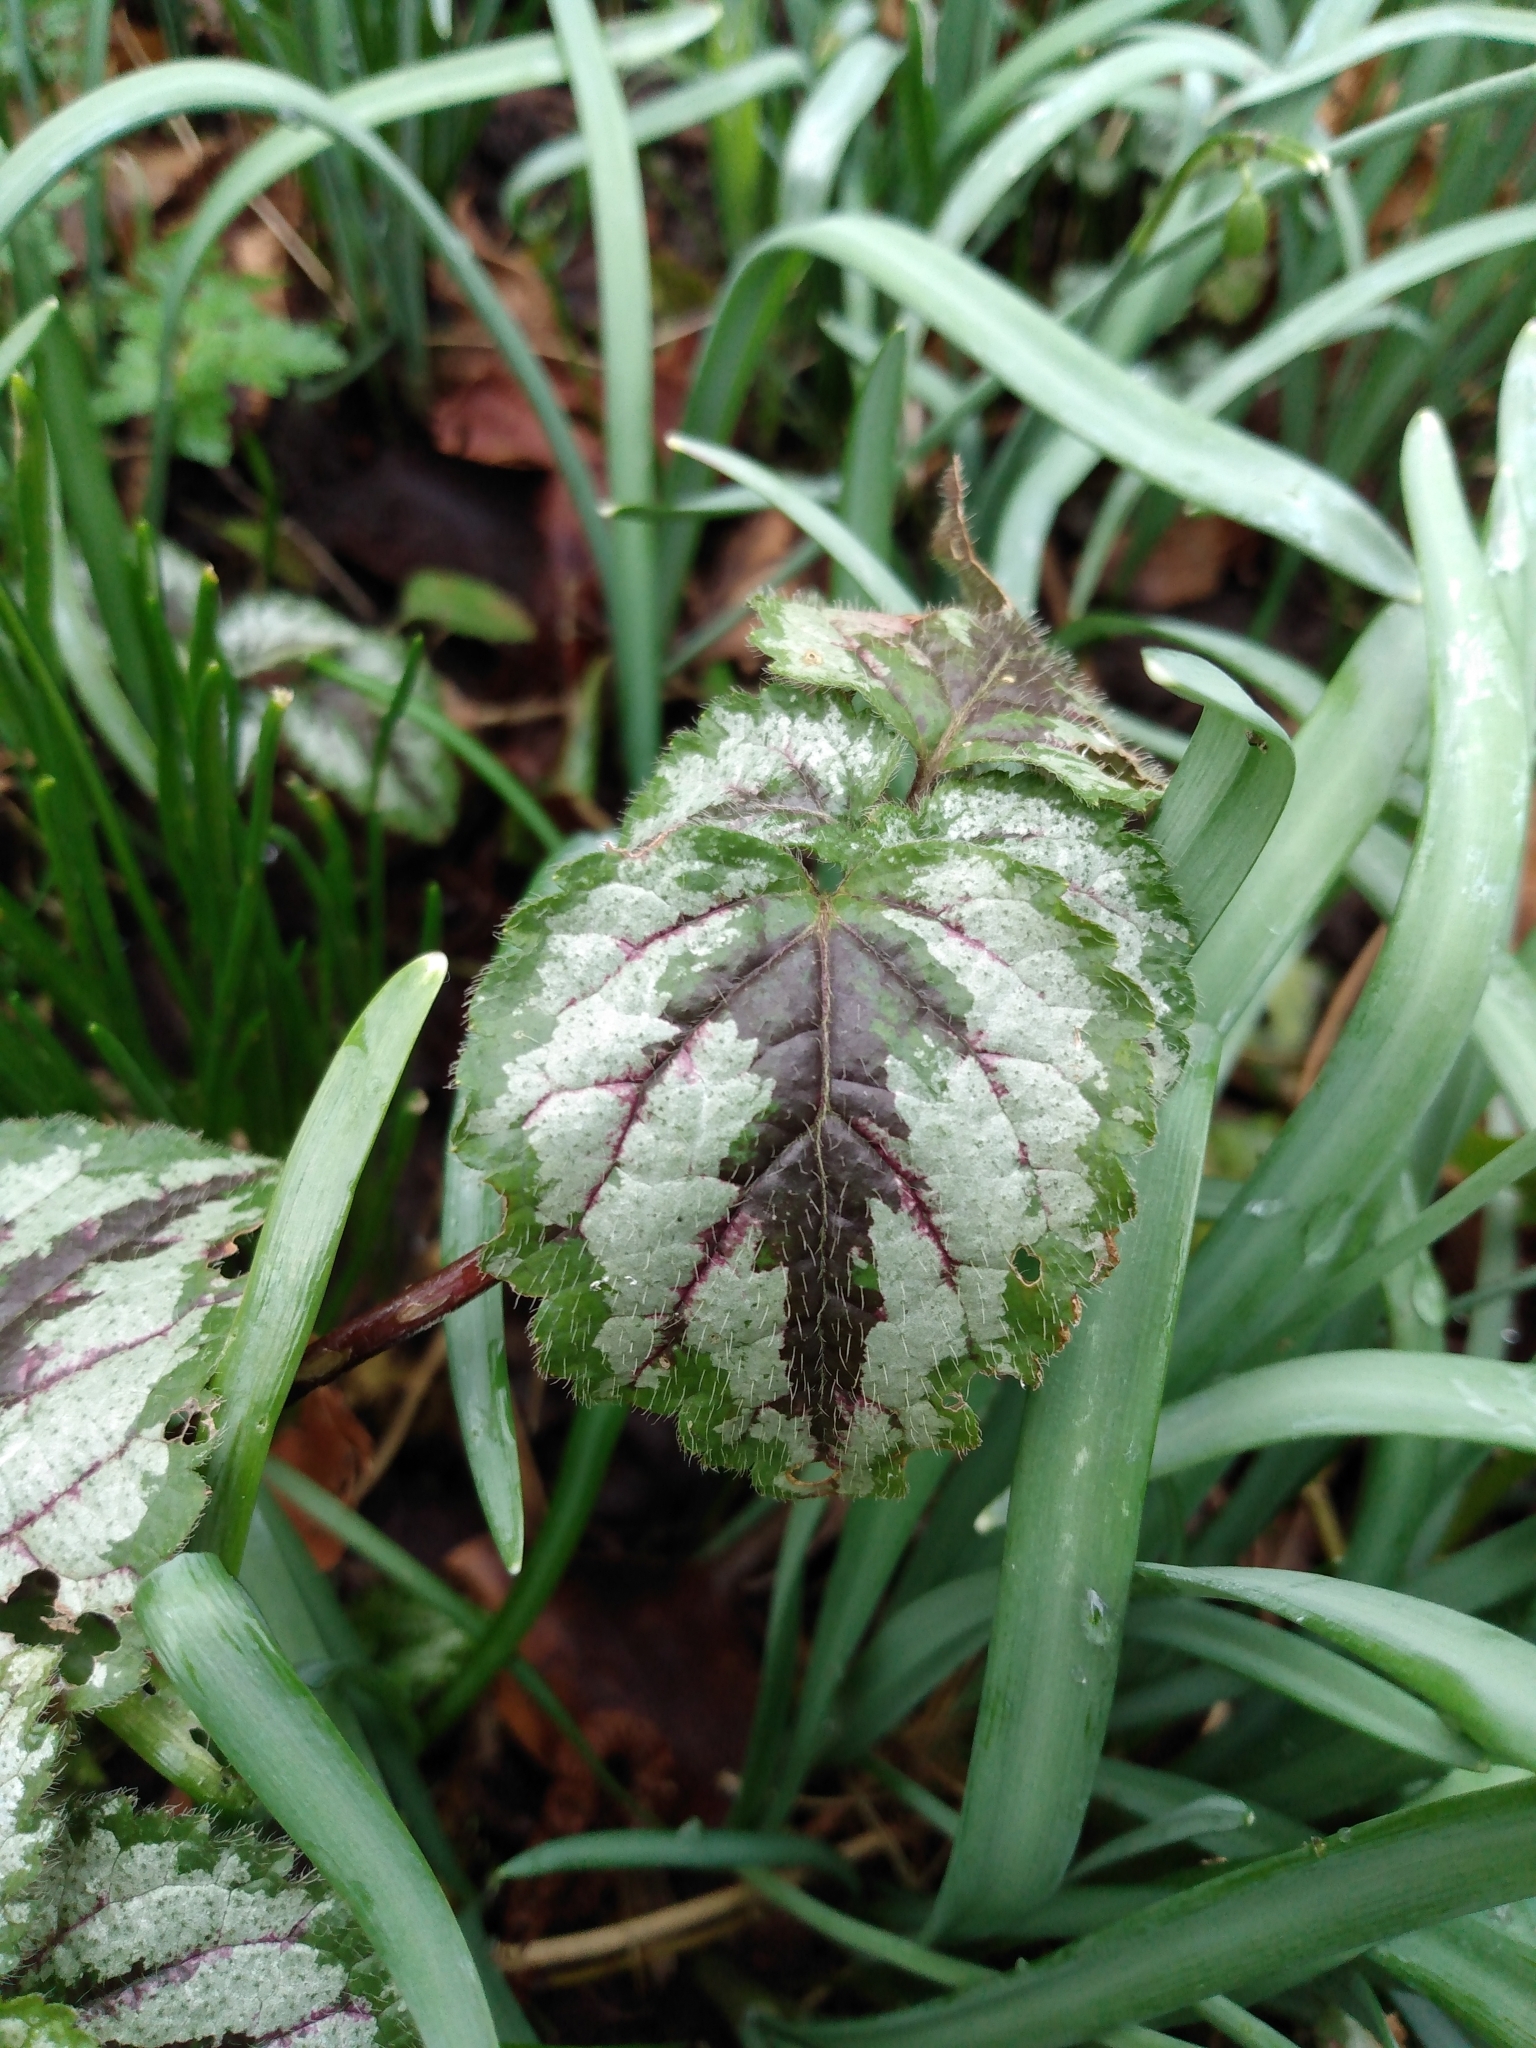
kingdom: Plantae
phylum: Tracheophyta
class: Magnoliopsida
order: Lamiales
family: Lamiaceae
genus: Lamium
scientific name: Lamium galeobdolon
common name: Yellow archangel
